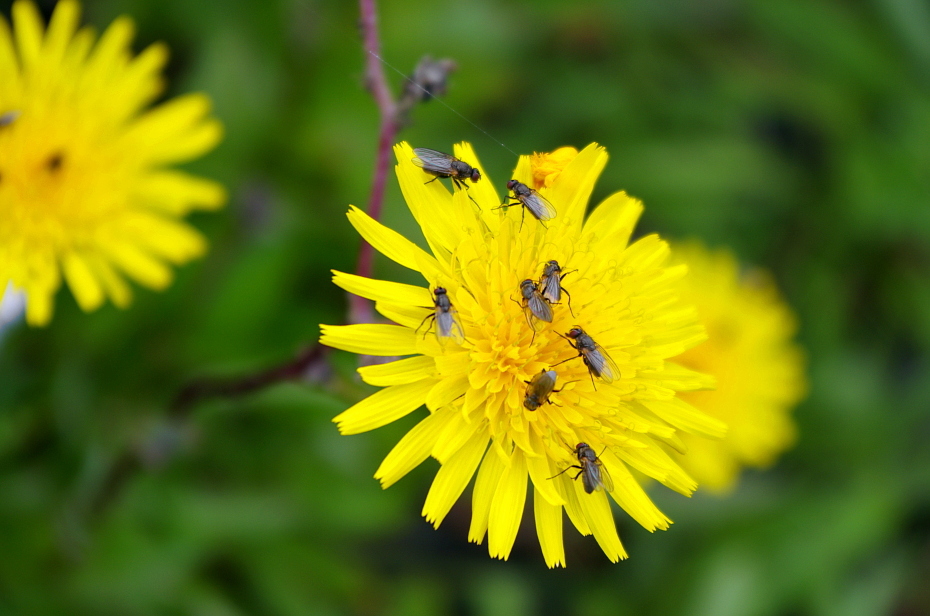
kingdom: Plantae
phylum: Tracheophyta
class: Magnoliopsida
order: Asterales
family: Asteraceae
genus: Sonchus
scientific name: Sonchus arvensis
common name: Perennial sow-thistle
